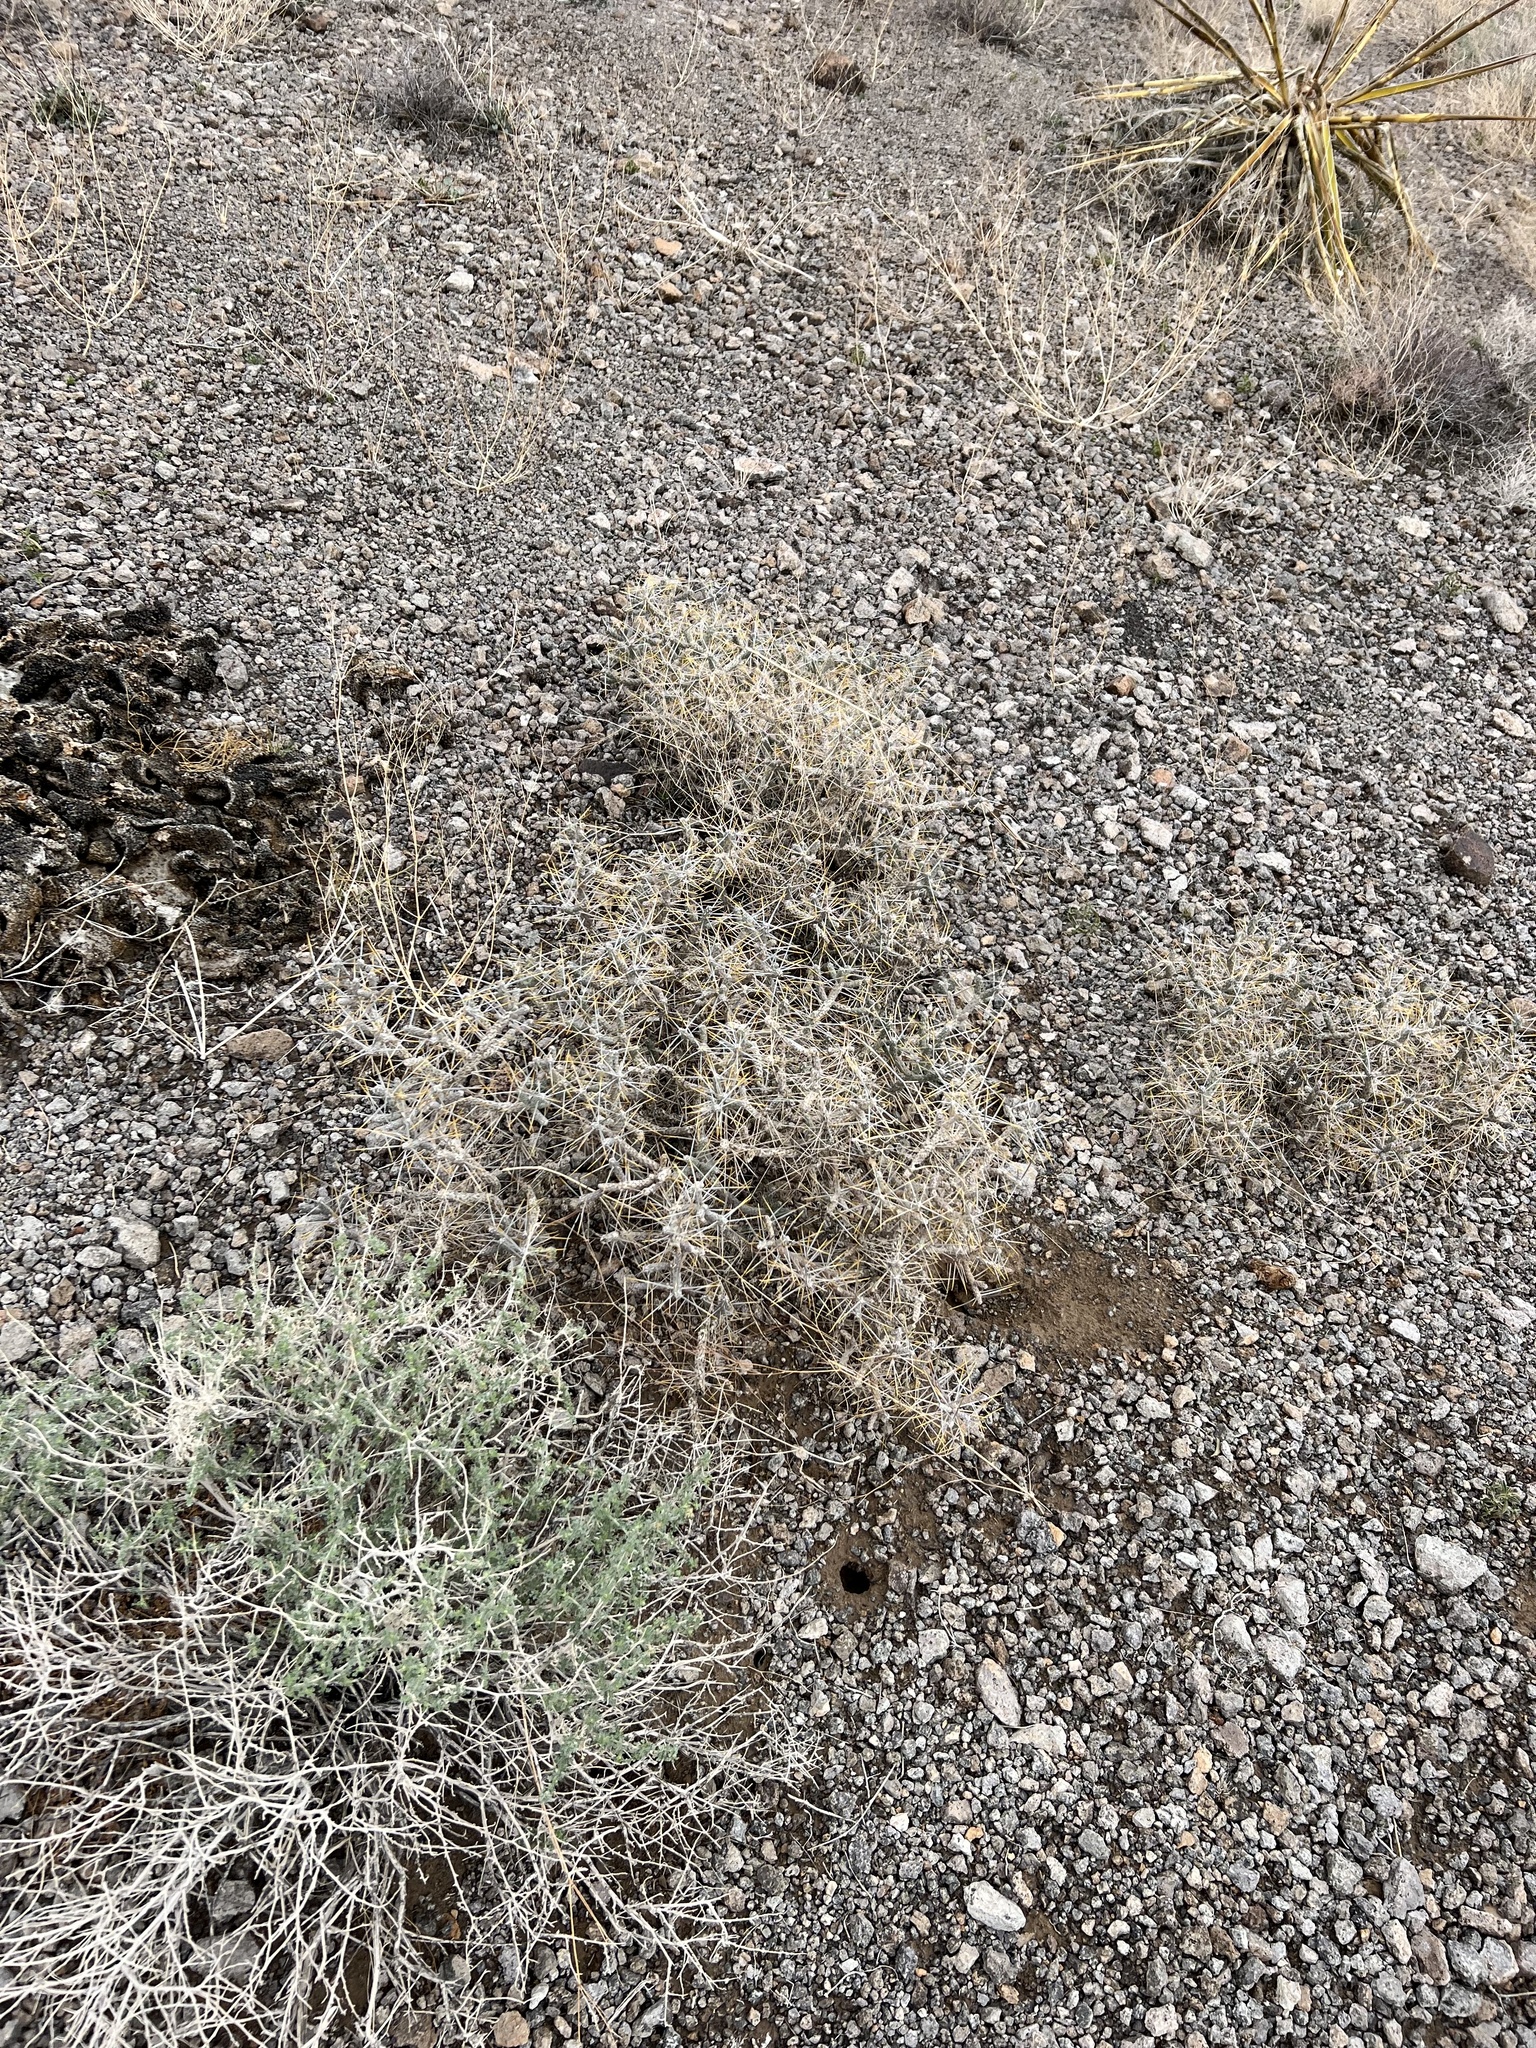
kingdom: Plantae
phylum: Tracheophyta
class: Magnoliopsida
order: Caryophyllales
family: Cactaceae
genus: Cylindropuntia
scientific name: Cylindropuntia ramosissima
